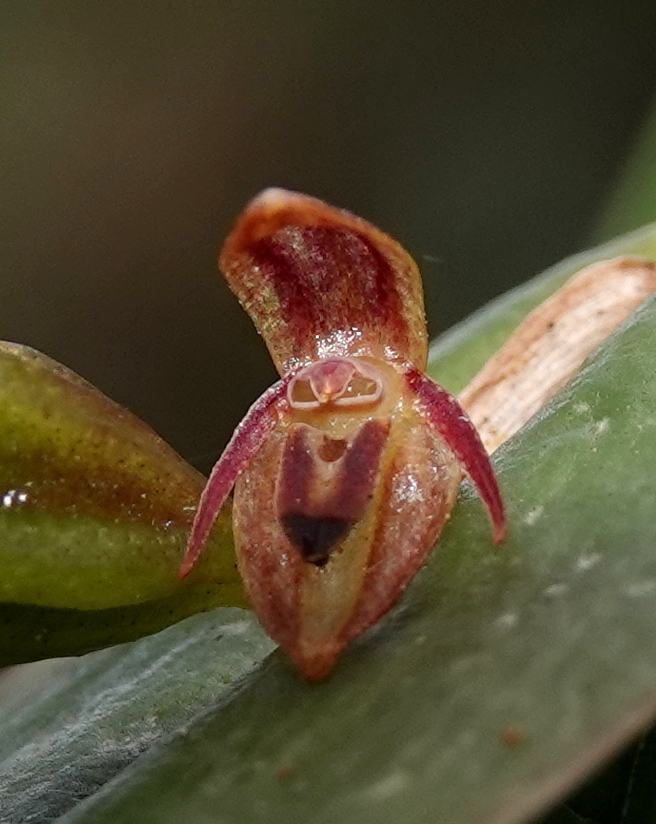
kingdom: Plantae
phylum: Tracheophyta
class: Liliopsida
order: Asparagales
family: Orchidaceae
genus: Pleurothallis
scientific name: Pleurothallis matudana
